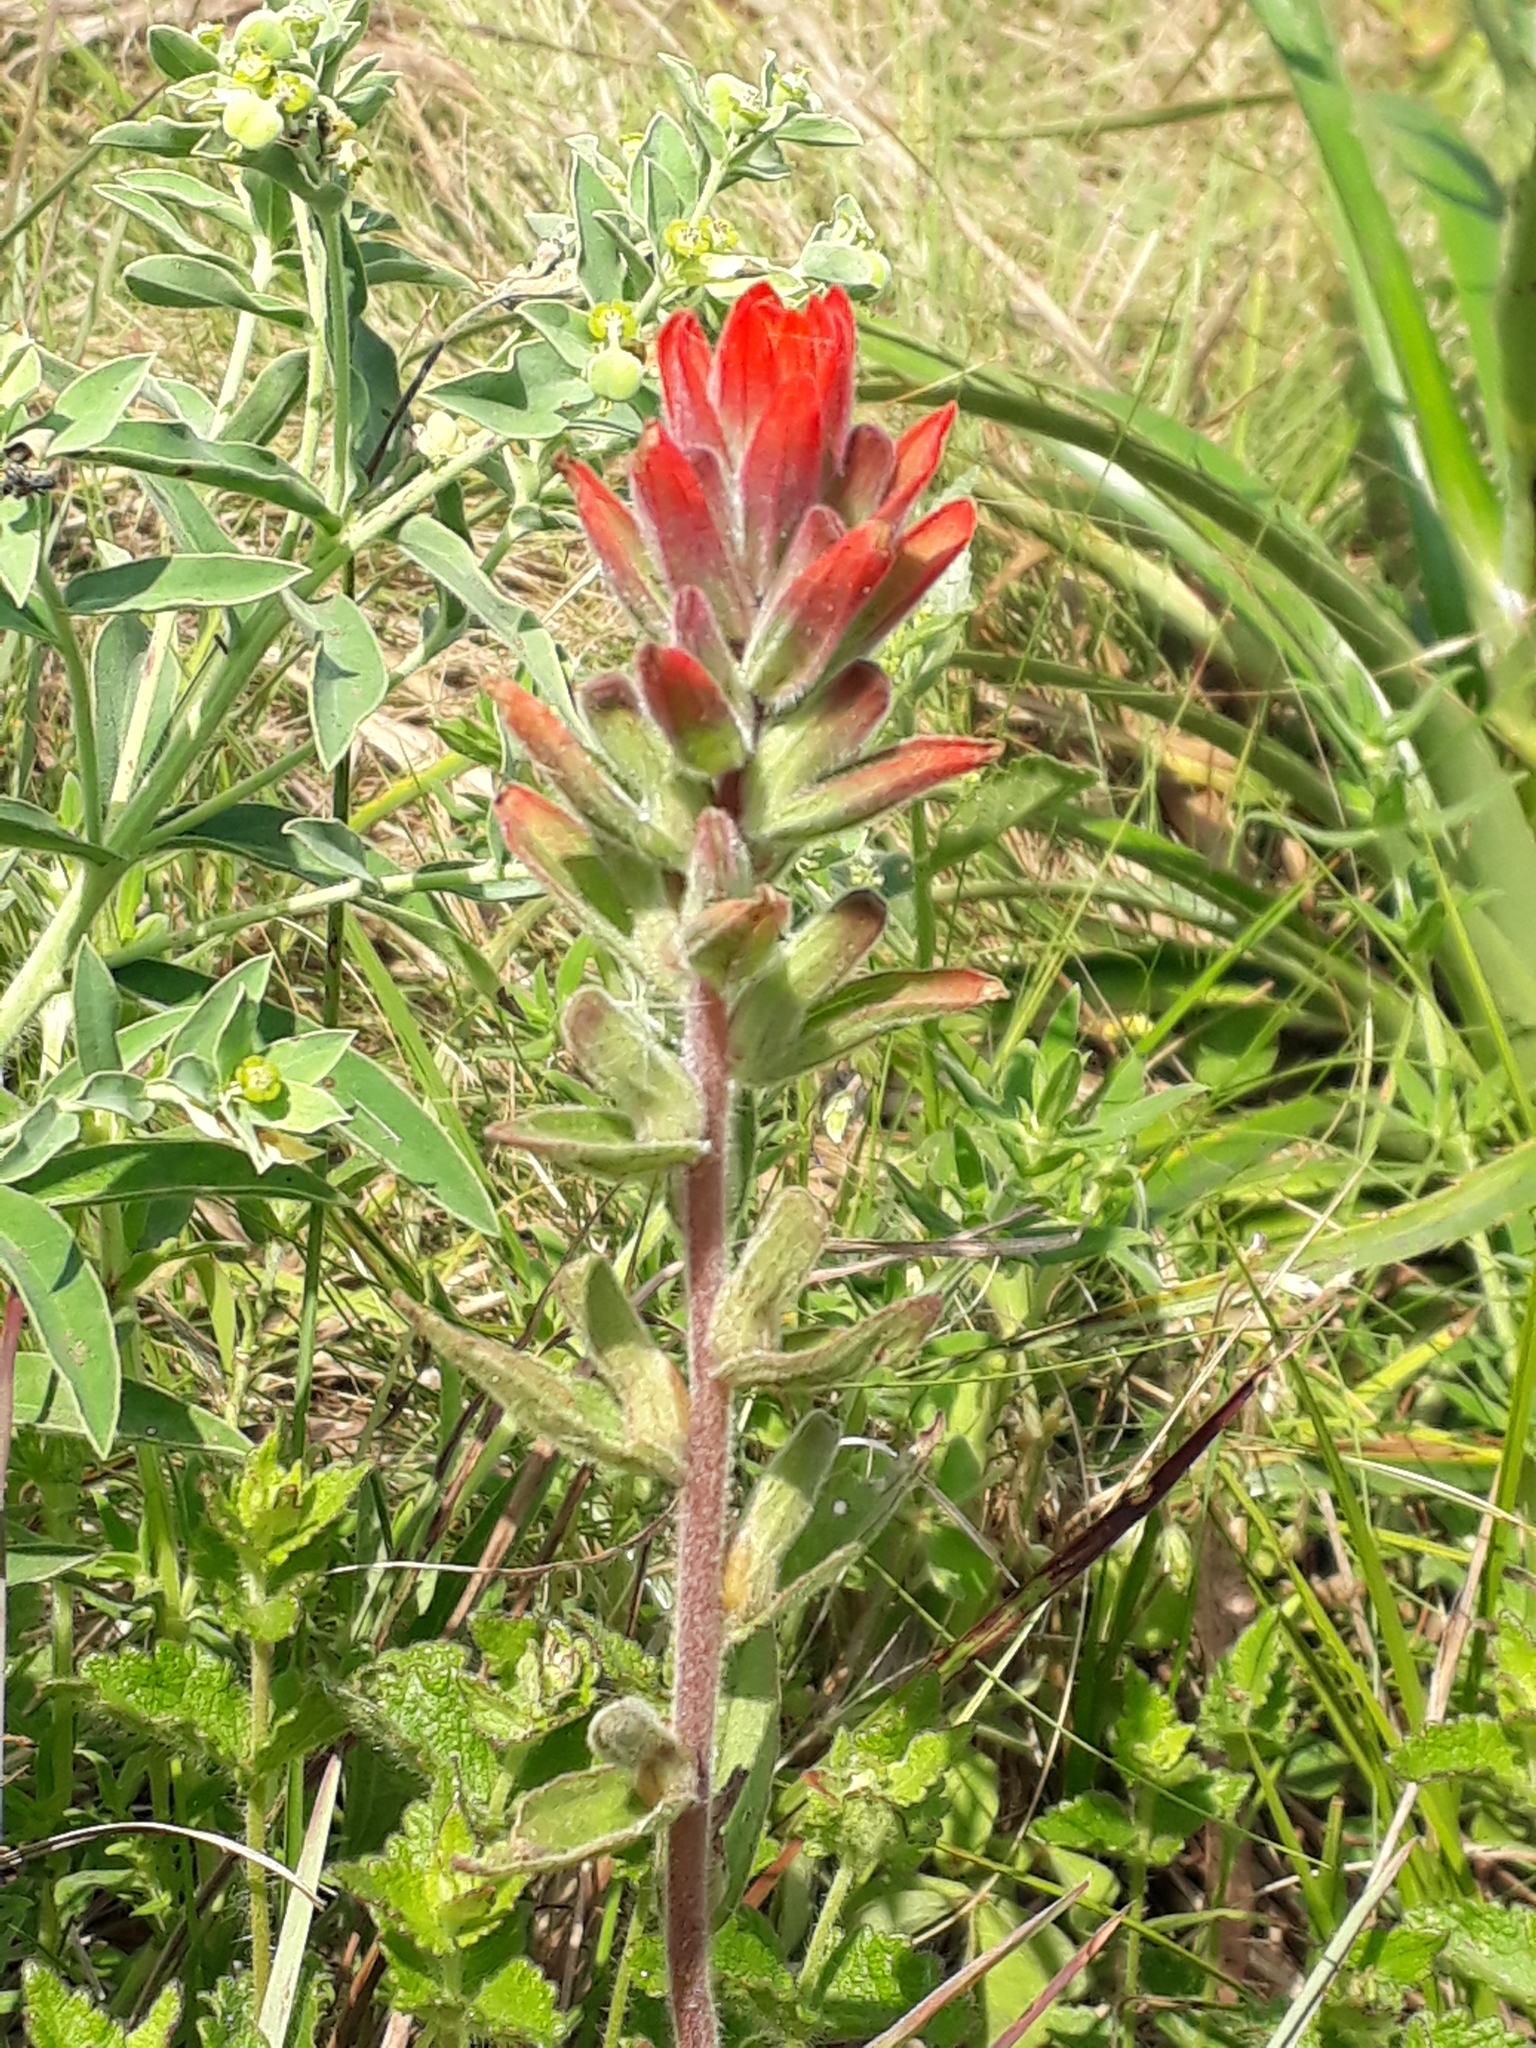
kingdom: Plantae
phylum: Tracheophyta
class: Magnoliopsida
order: Lamiales
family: Orobanchaceae
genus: Castilleja
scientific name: Castilleja arvensis
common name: Indian paintbrush
